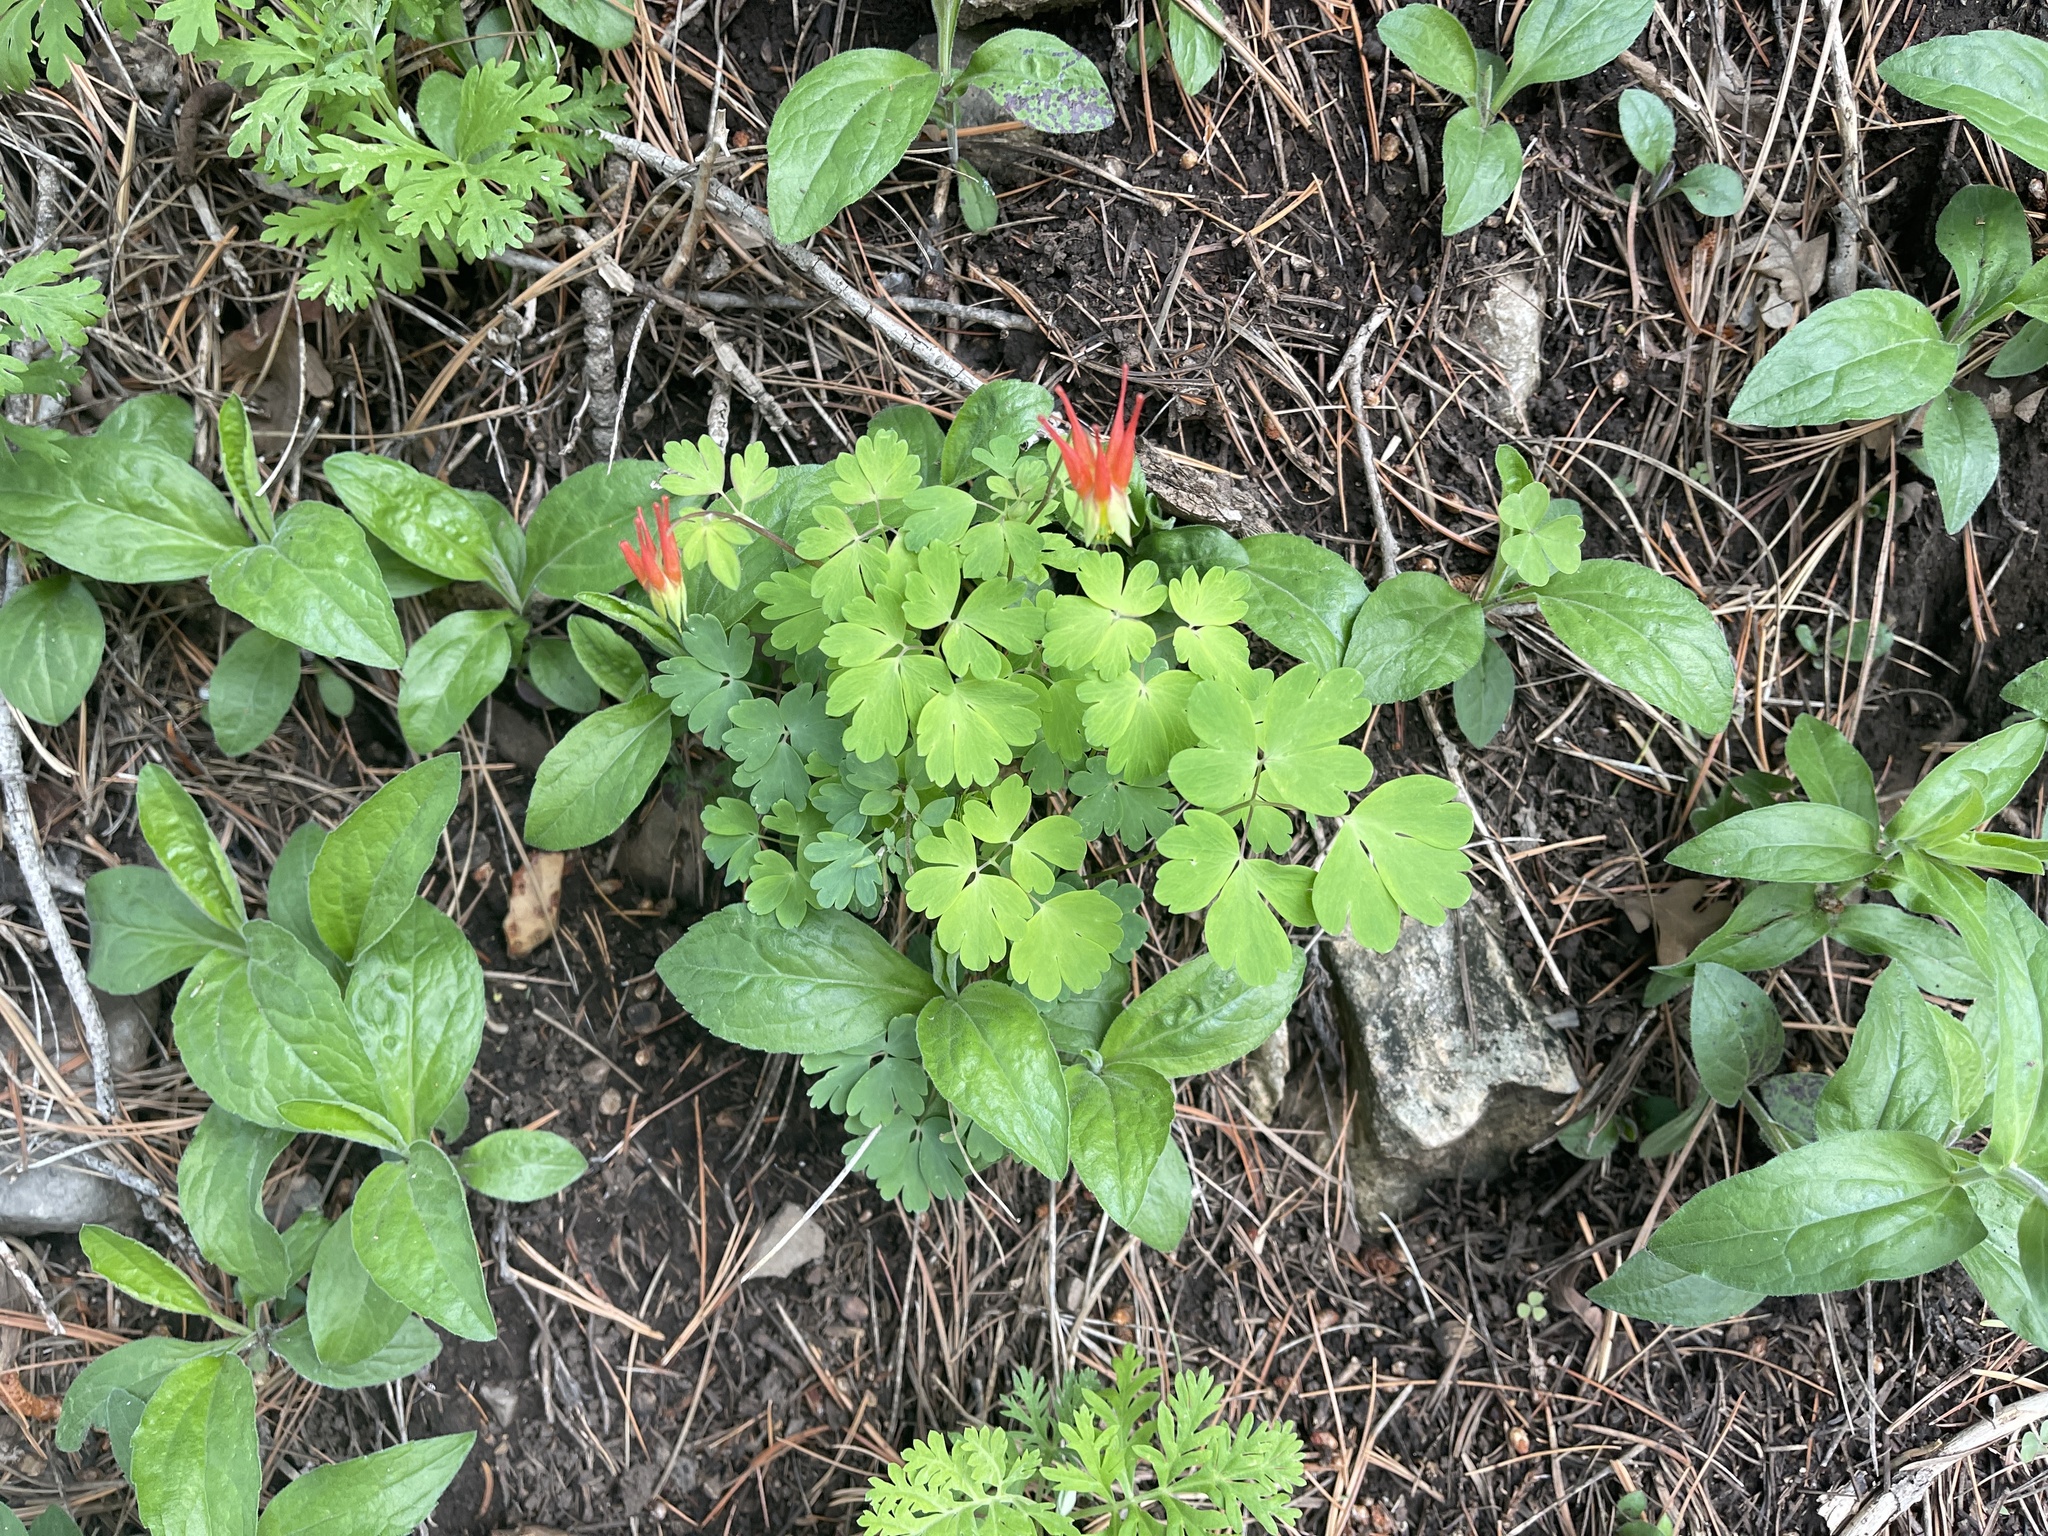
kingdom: Plantae
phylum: Tracheophyta
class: Magnoliopsida
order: Ranunculales
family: Ranunculaceae
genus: Aquilegia
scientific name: Aquilegia elegantula
